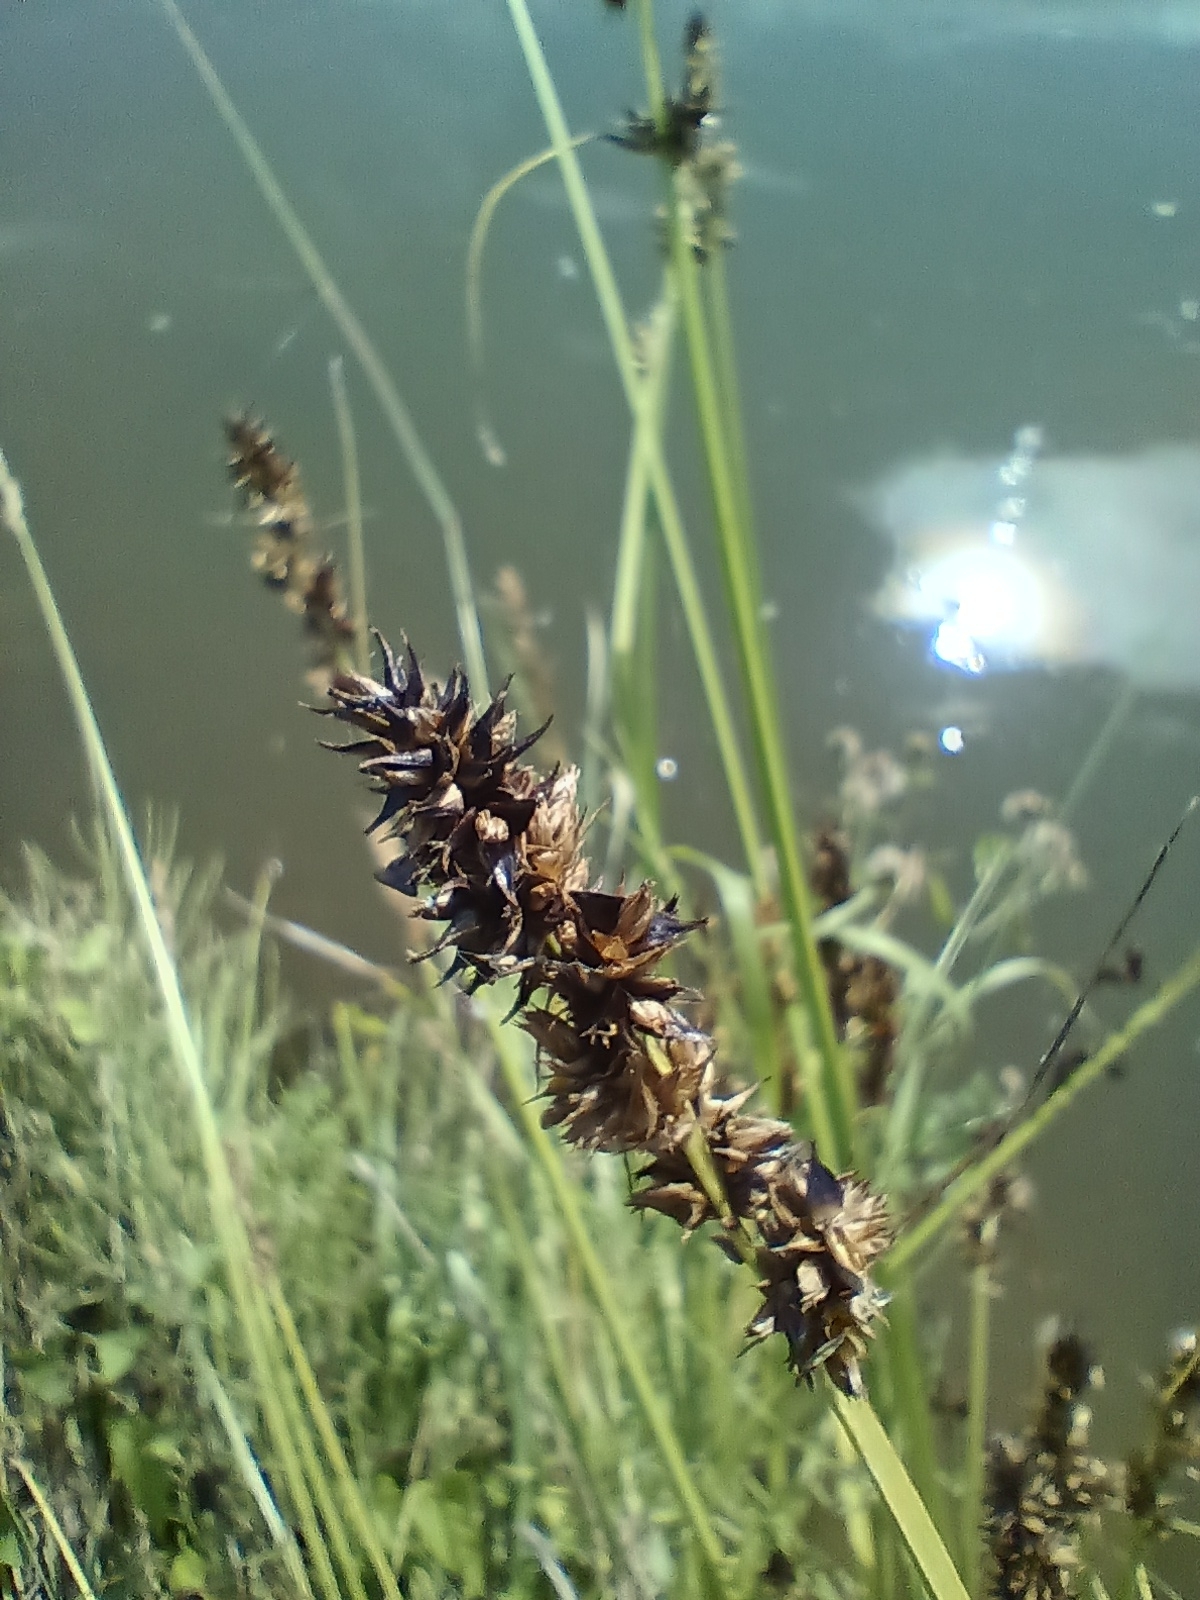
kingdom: Plantae
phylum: Tracheophyta
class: Liliopsida
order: Poales
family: Cyperaceae
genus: Carex
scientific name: Carex otrubae
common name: False fox-sedge
